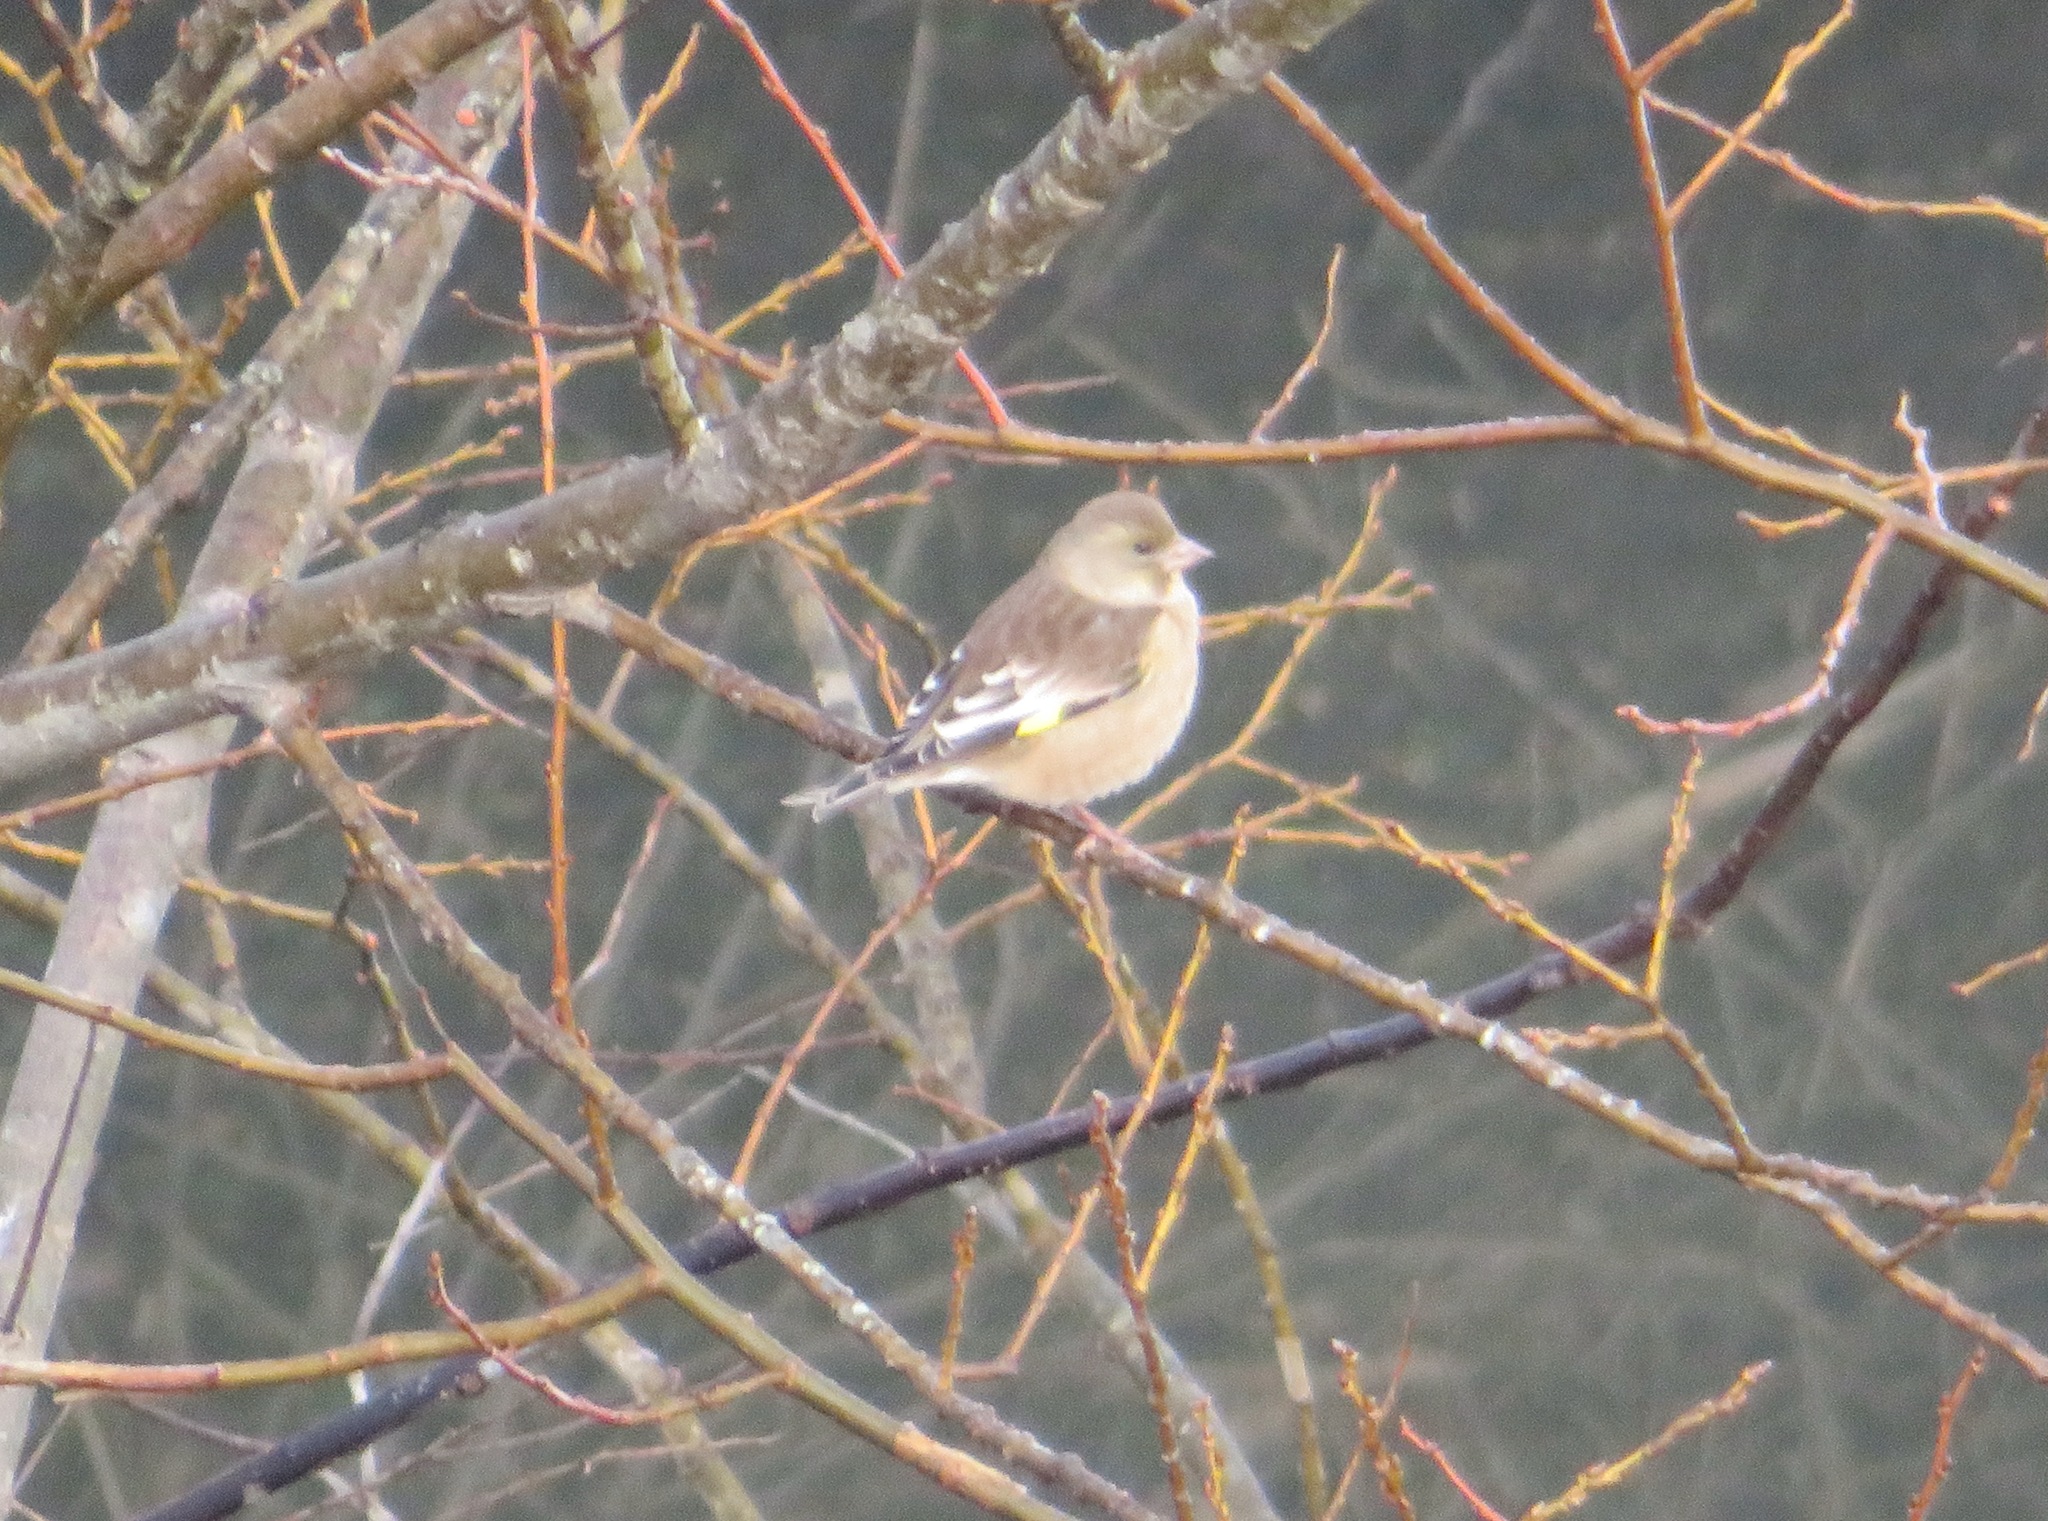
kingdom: Plantae
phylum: Tracheophyta
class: Liliopsida
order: Poales
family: Poaceae
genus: Chloris
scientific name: Chloris sinica
